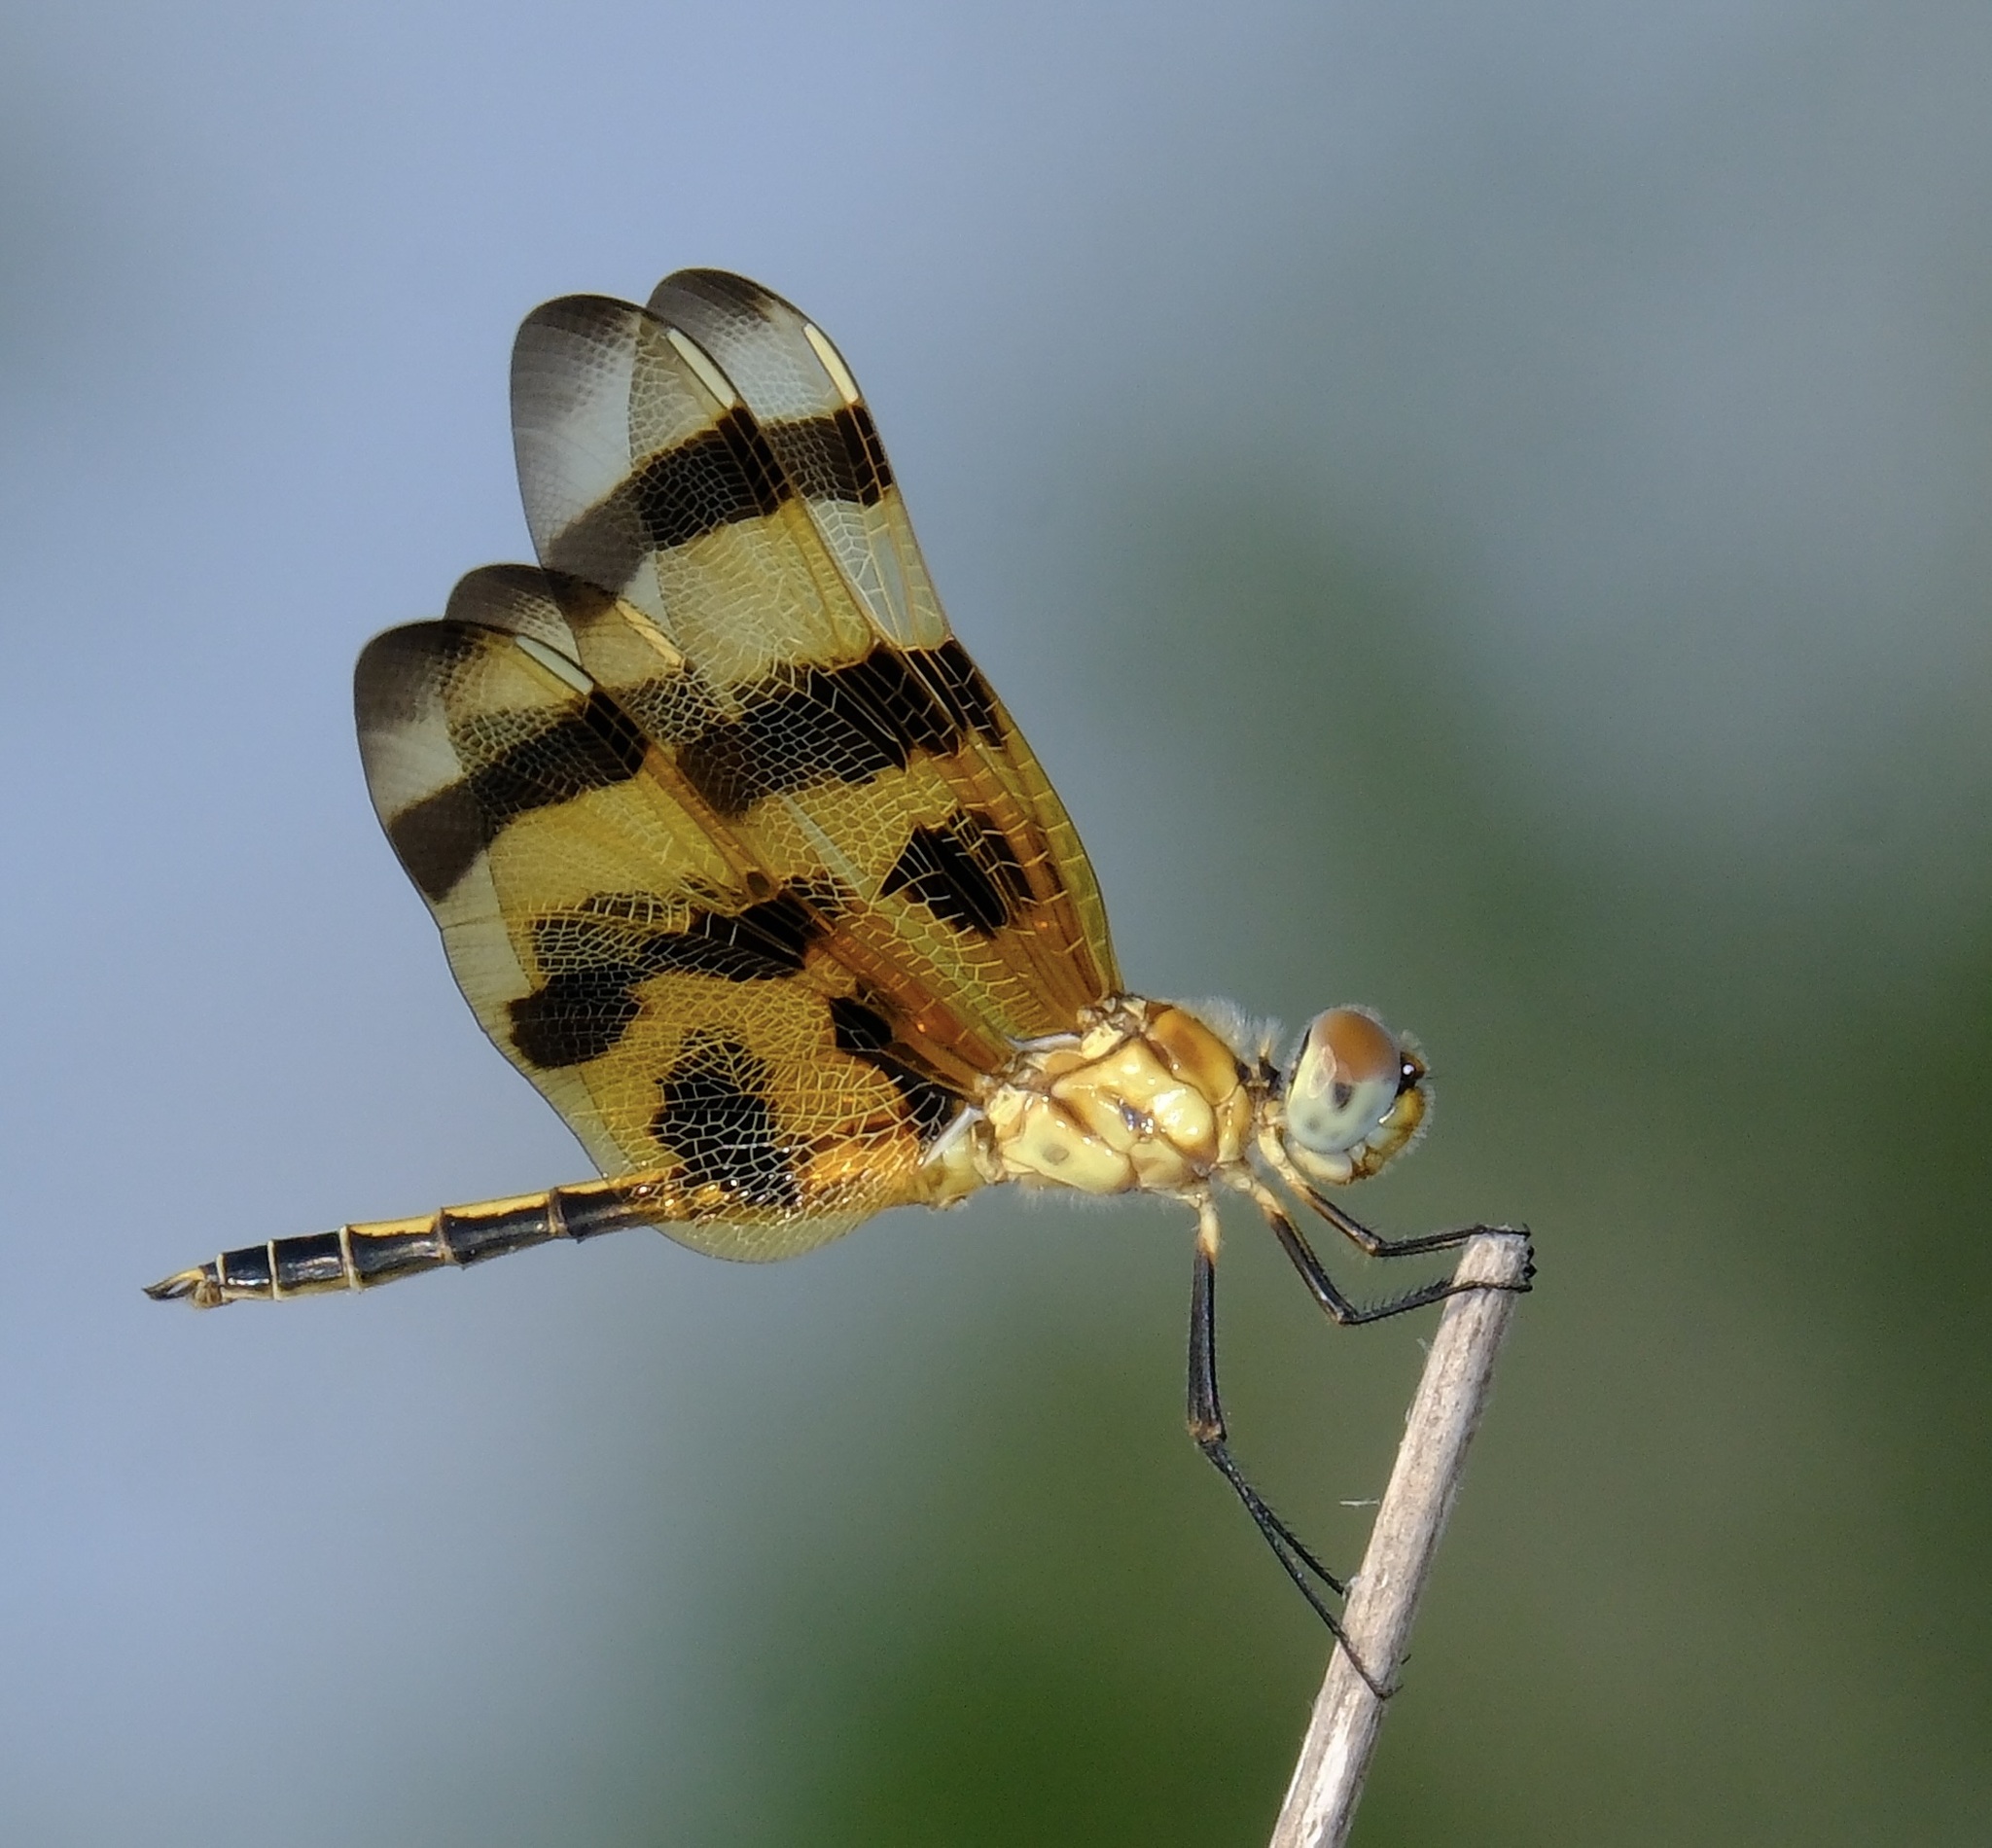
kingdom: Animalia
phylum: Arthropoda
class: Insecta
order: Odonata
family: Libellulidae
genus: Celithemis
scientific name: Celithemis eponina
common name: Halloween pennant
